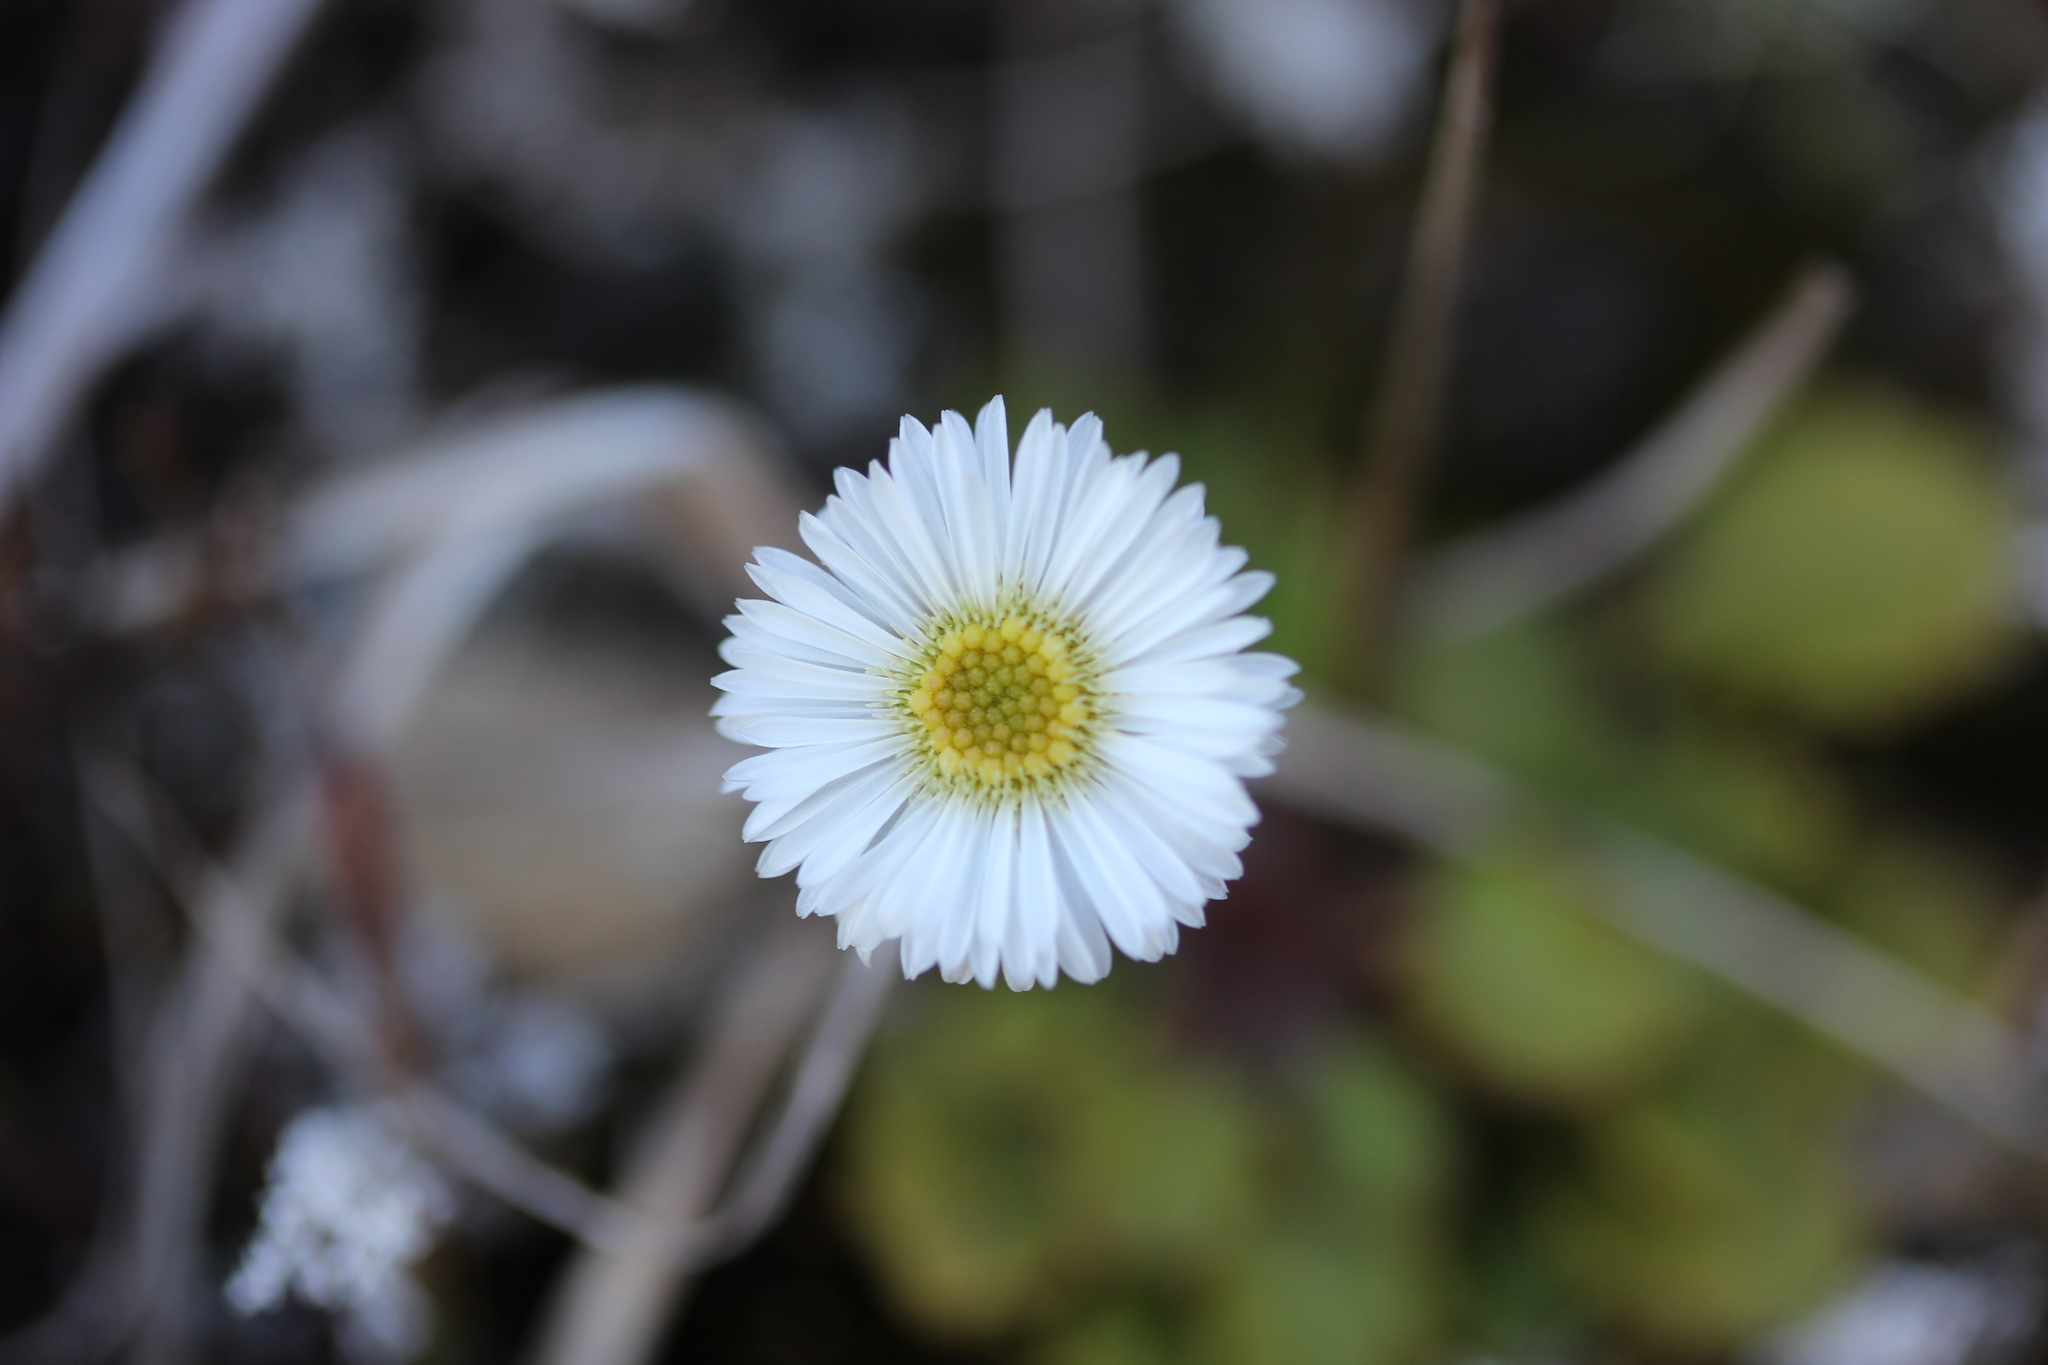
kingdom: Plantae
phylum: Tracheophyta
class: Magnoliopsida
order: Asterales
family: Asteraceae
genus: Lagenophora
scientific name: Lagenophora pumila
